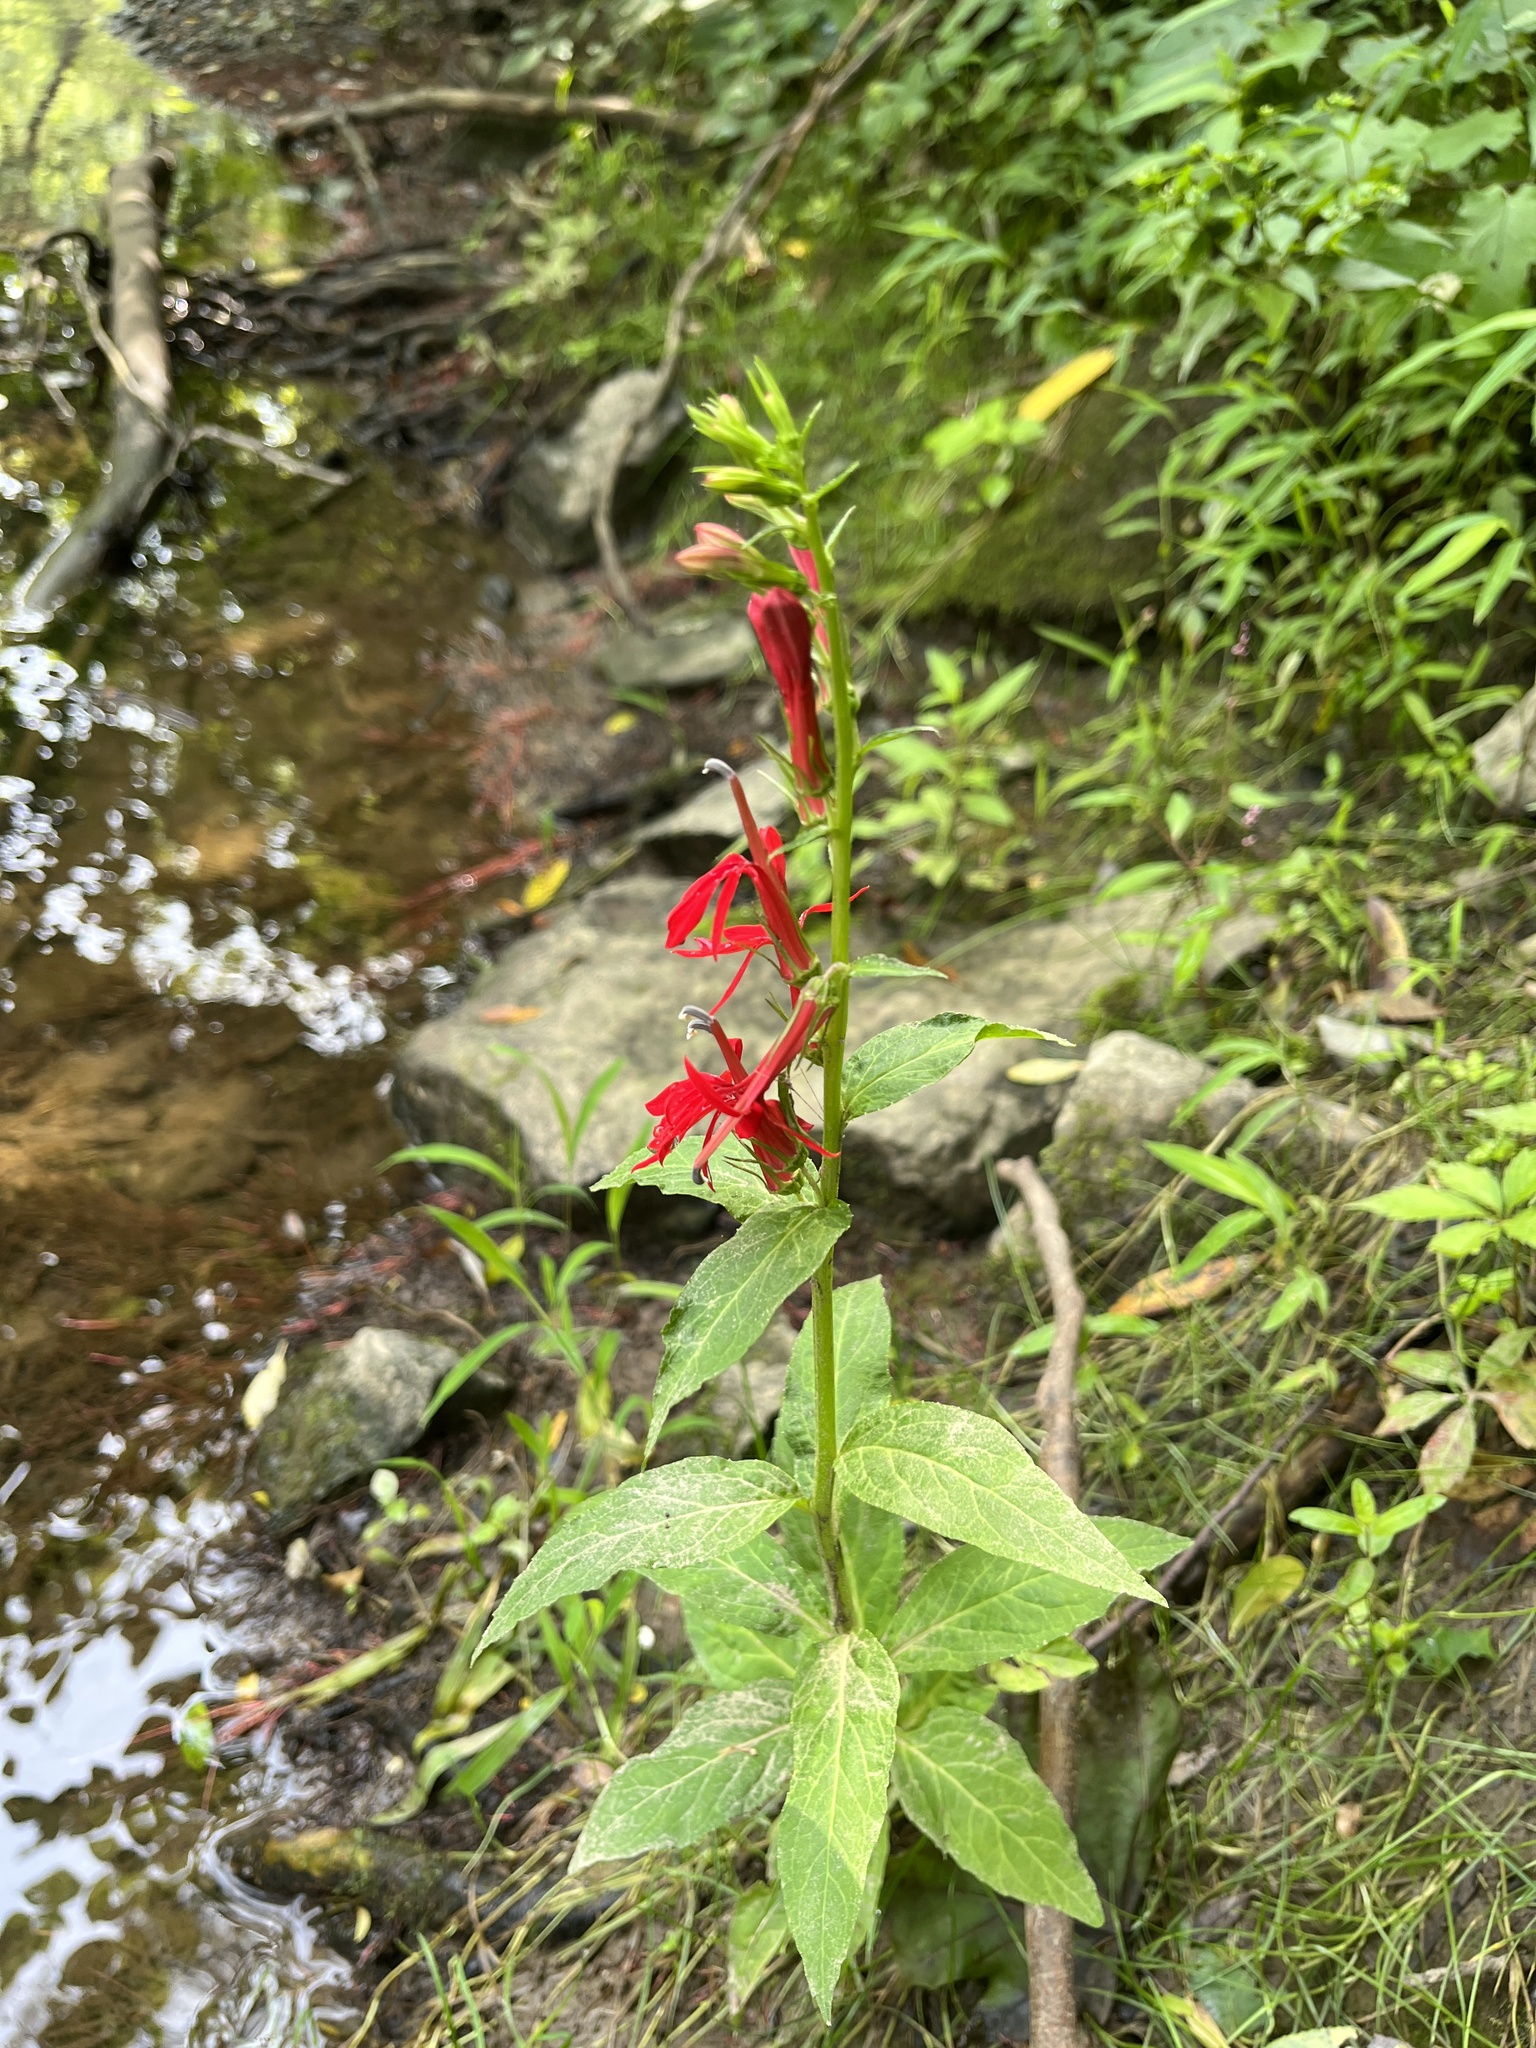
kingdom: Plantae
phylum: Tracheophyta
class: Magnoliopsida
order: Asterales
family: Campanulaceae
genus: Lobelia
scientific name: Lobelia cardinalis
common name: Cardinal flower
